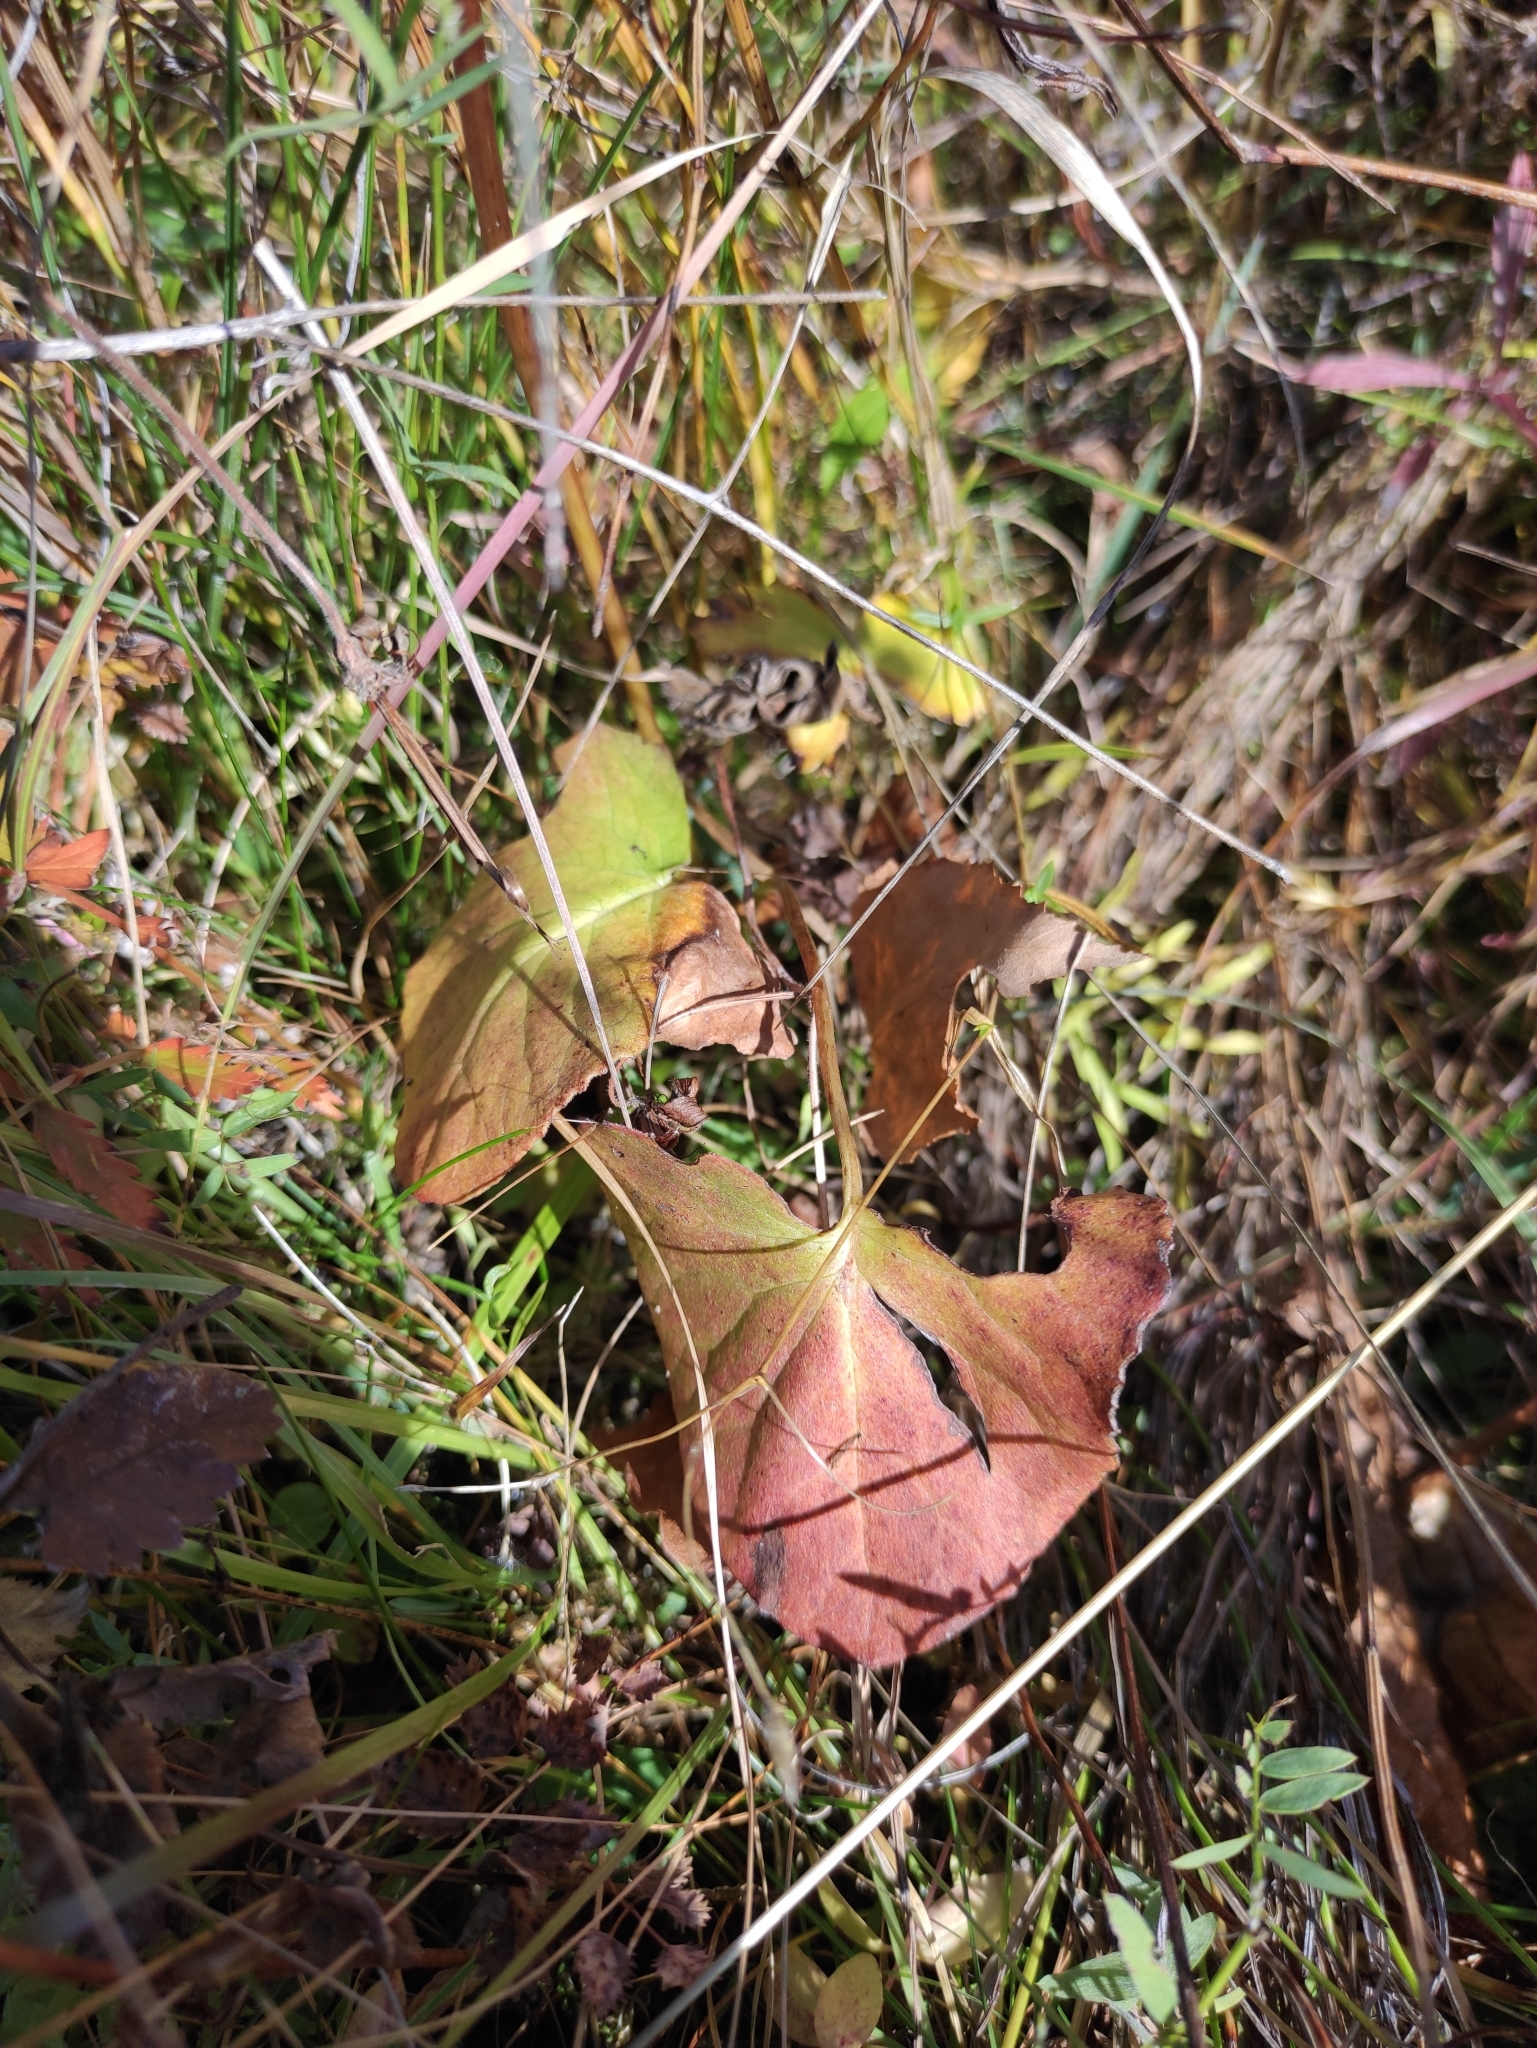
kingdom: Plantae
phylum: Tracheophyta
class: Magnoliopsida
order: Asterales
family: Asteraceae
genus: Ligularia
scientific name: Ligularia sibirica
